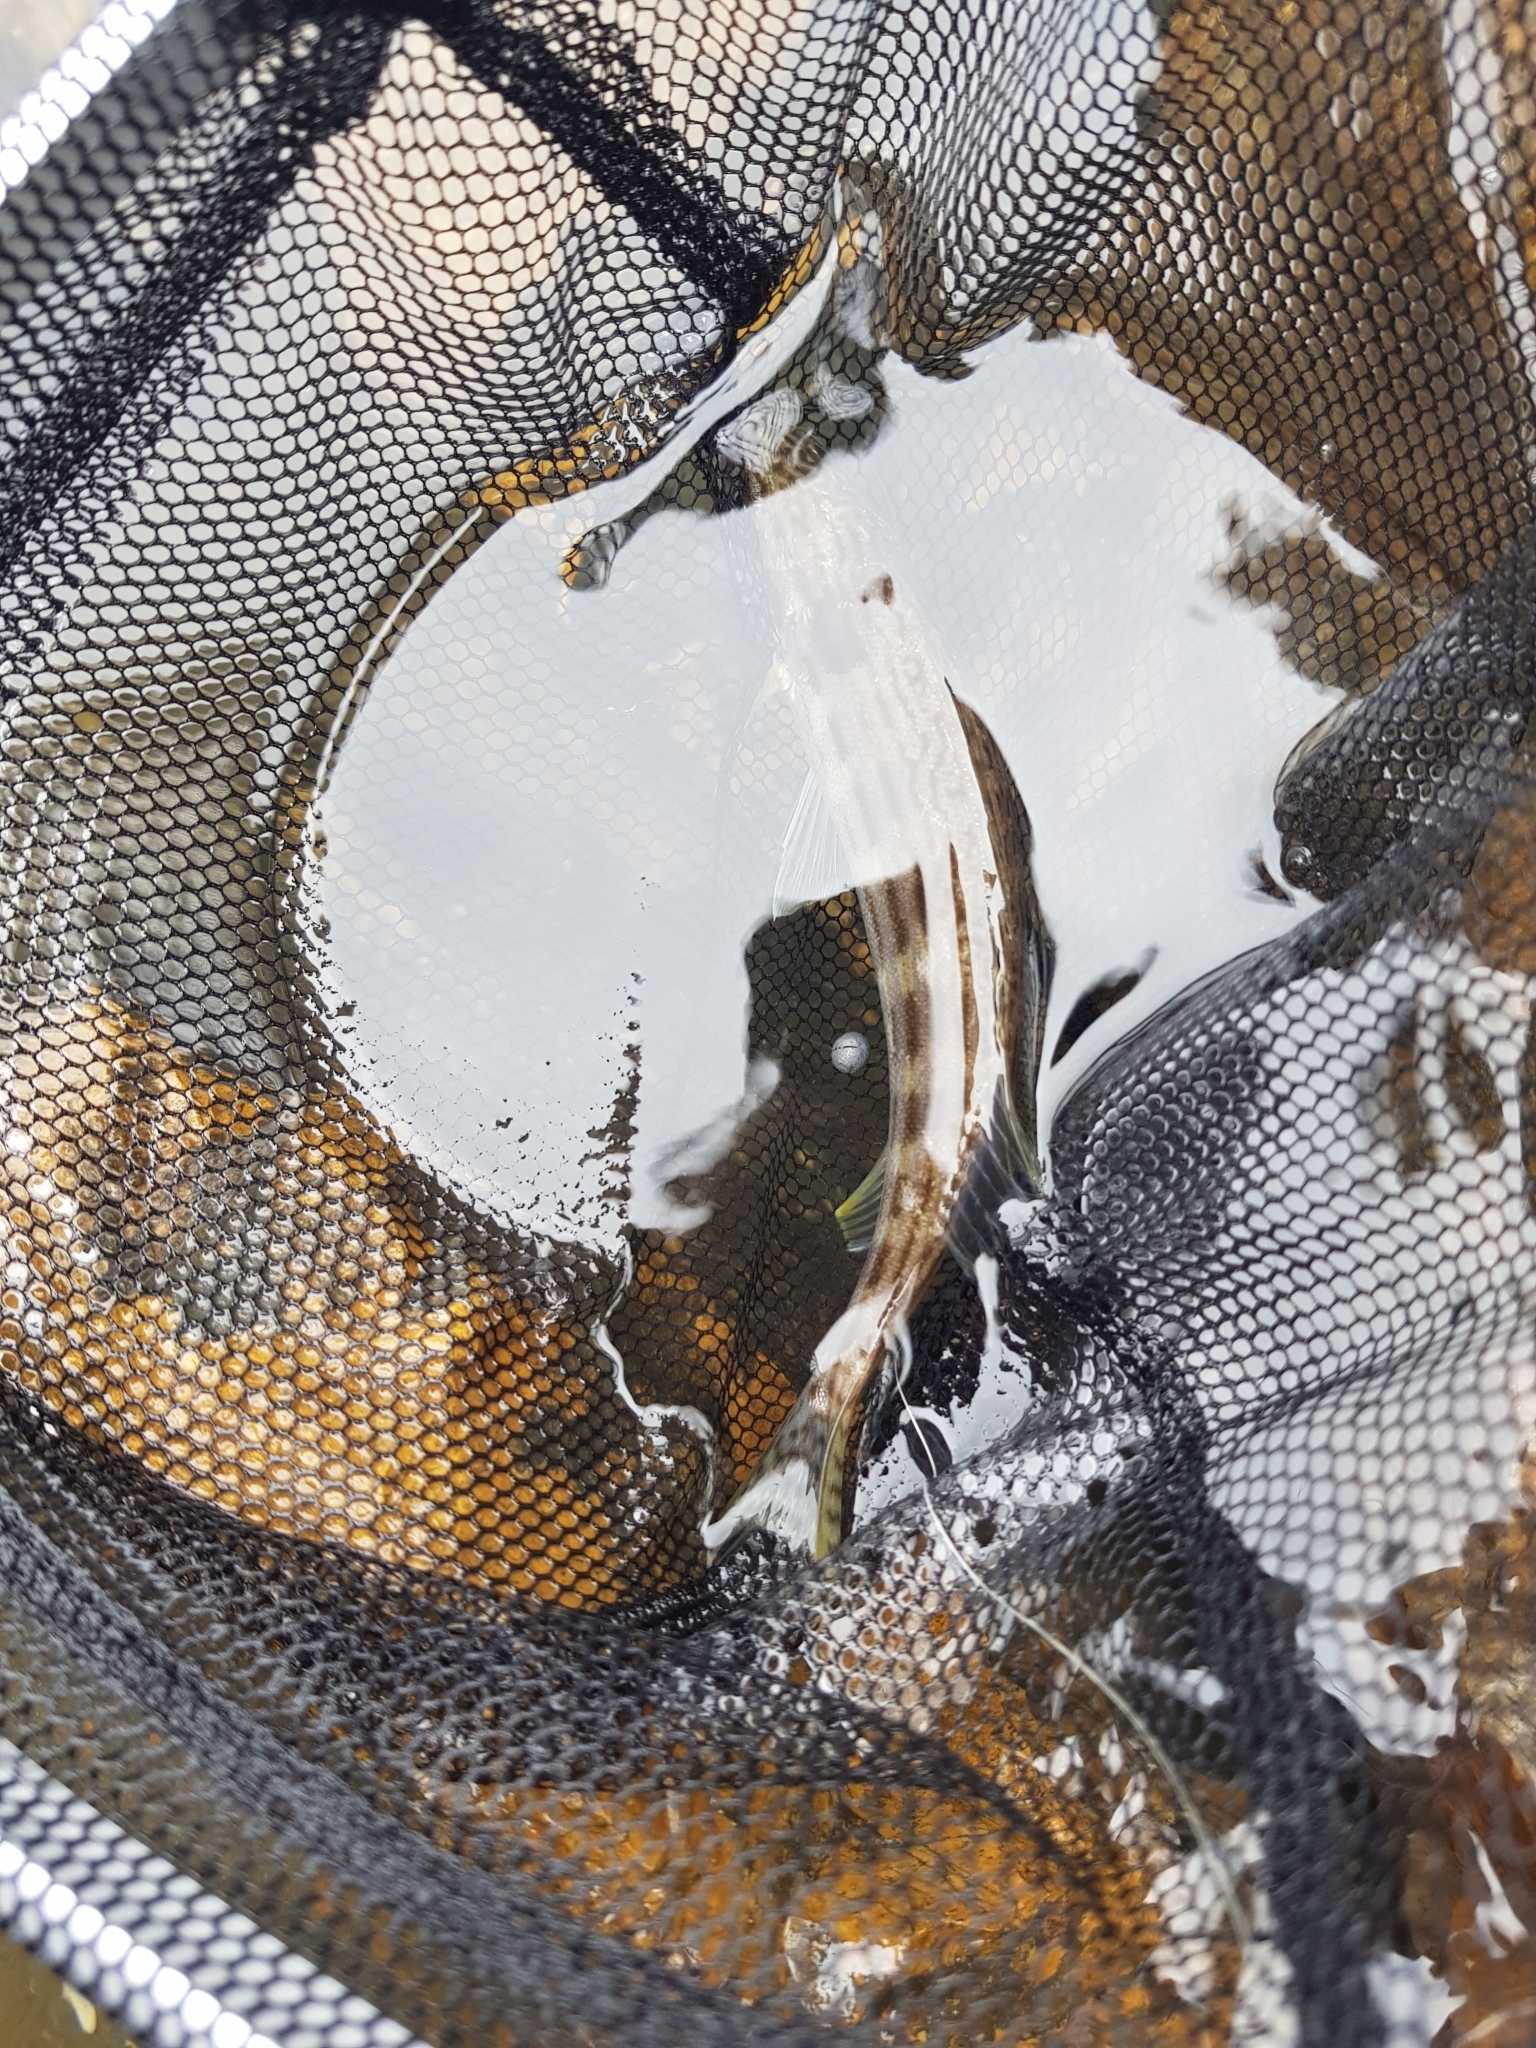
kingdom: Animalia
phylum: Chordata
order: Perciformes
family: Terapontidae
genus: Pelates
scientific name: Pelates octolineatus
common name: Eight-lined trumpeter
